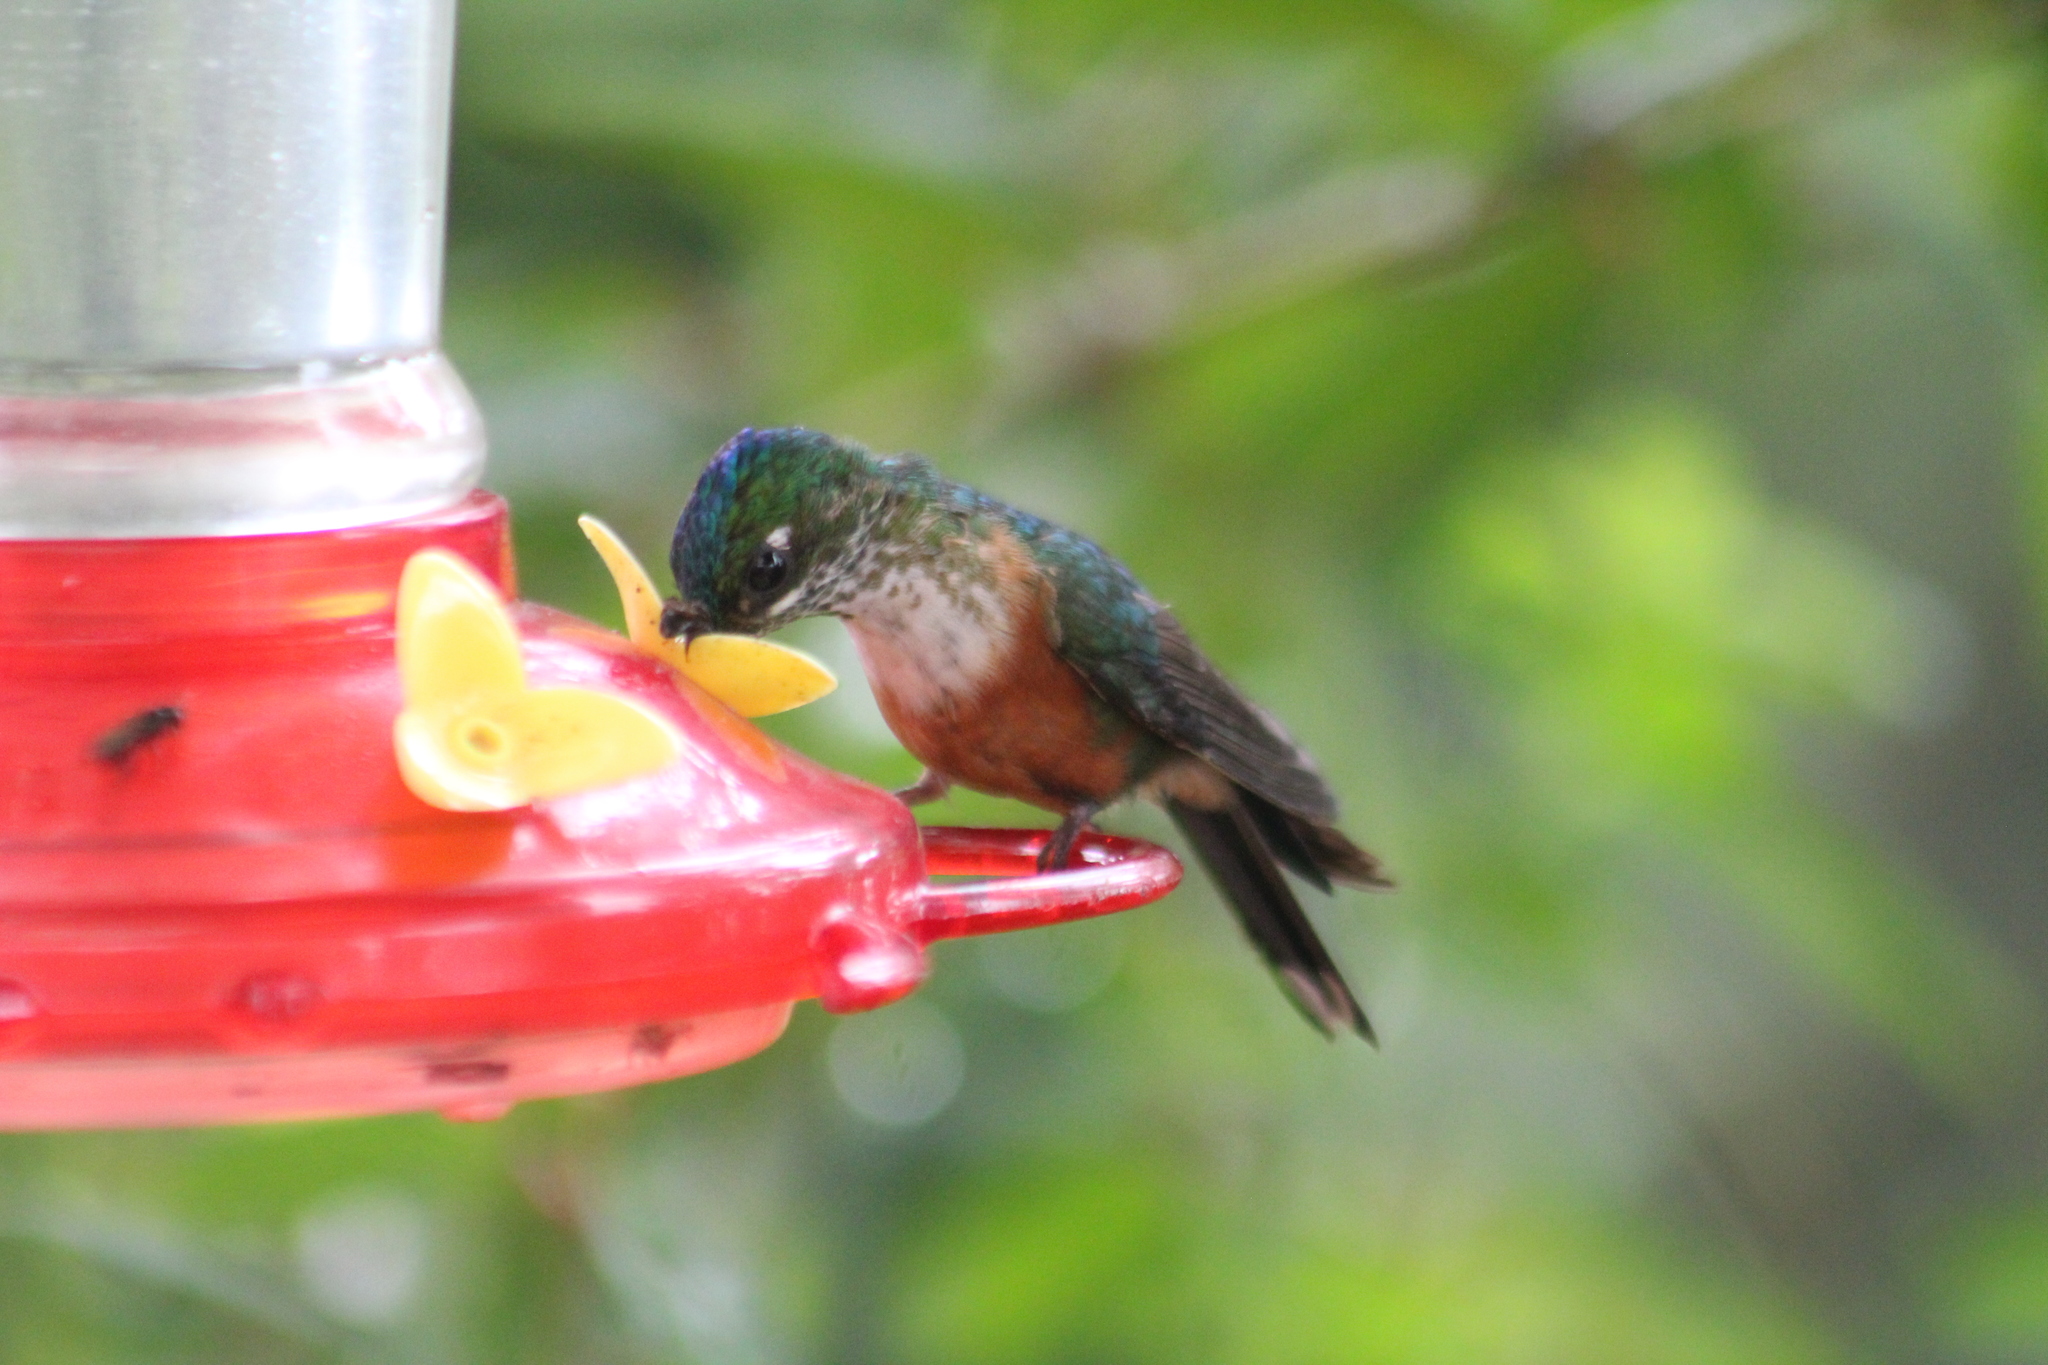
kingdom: Animalia
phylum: Chordata
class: Aves
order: Apodiformes
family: Trochilidae
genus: Aglaiocercus
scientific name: Aglaiocercus coelestis
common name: Violet-tailed sylph
